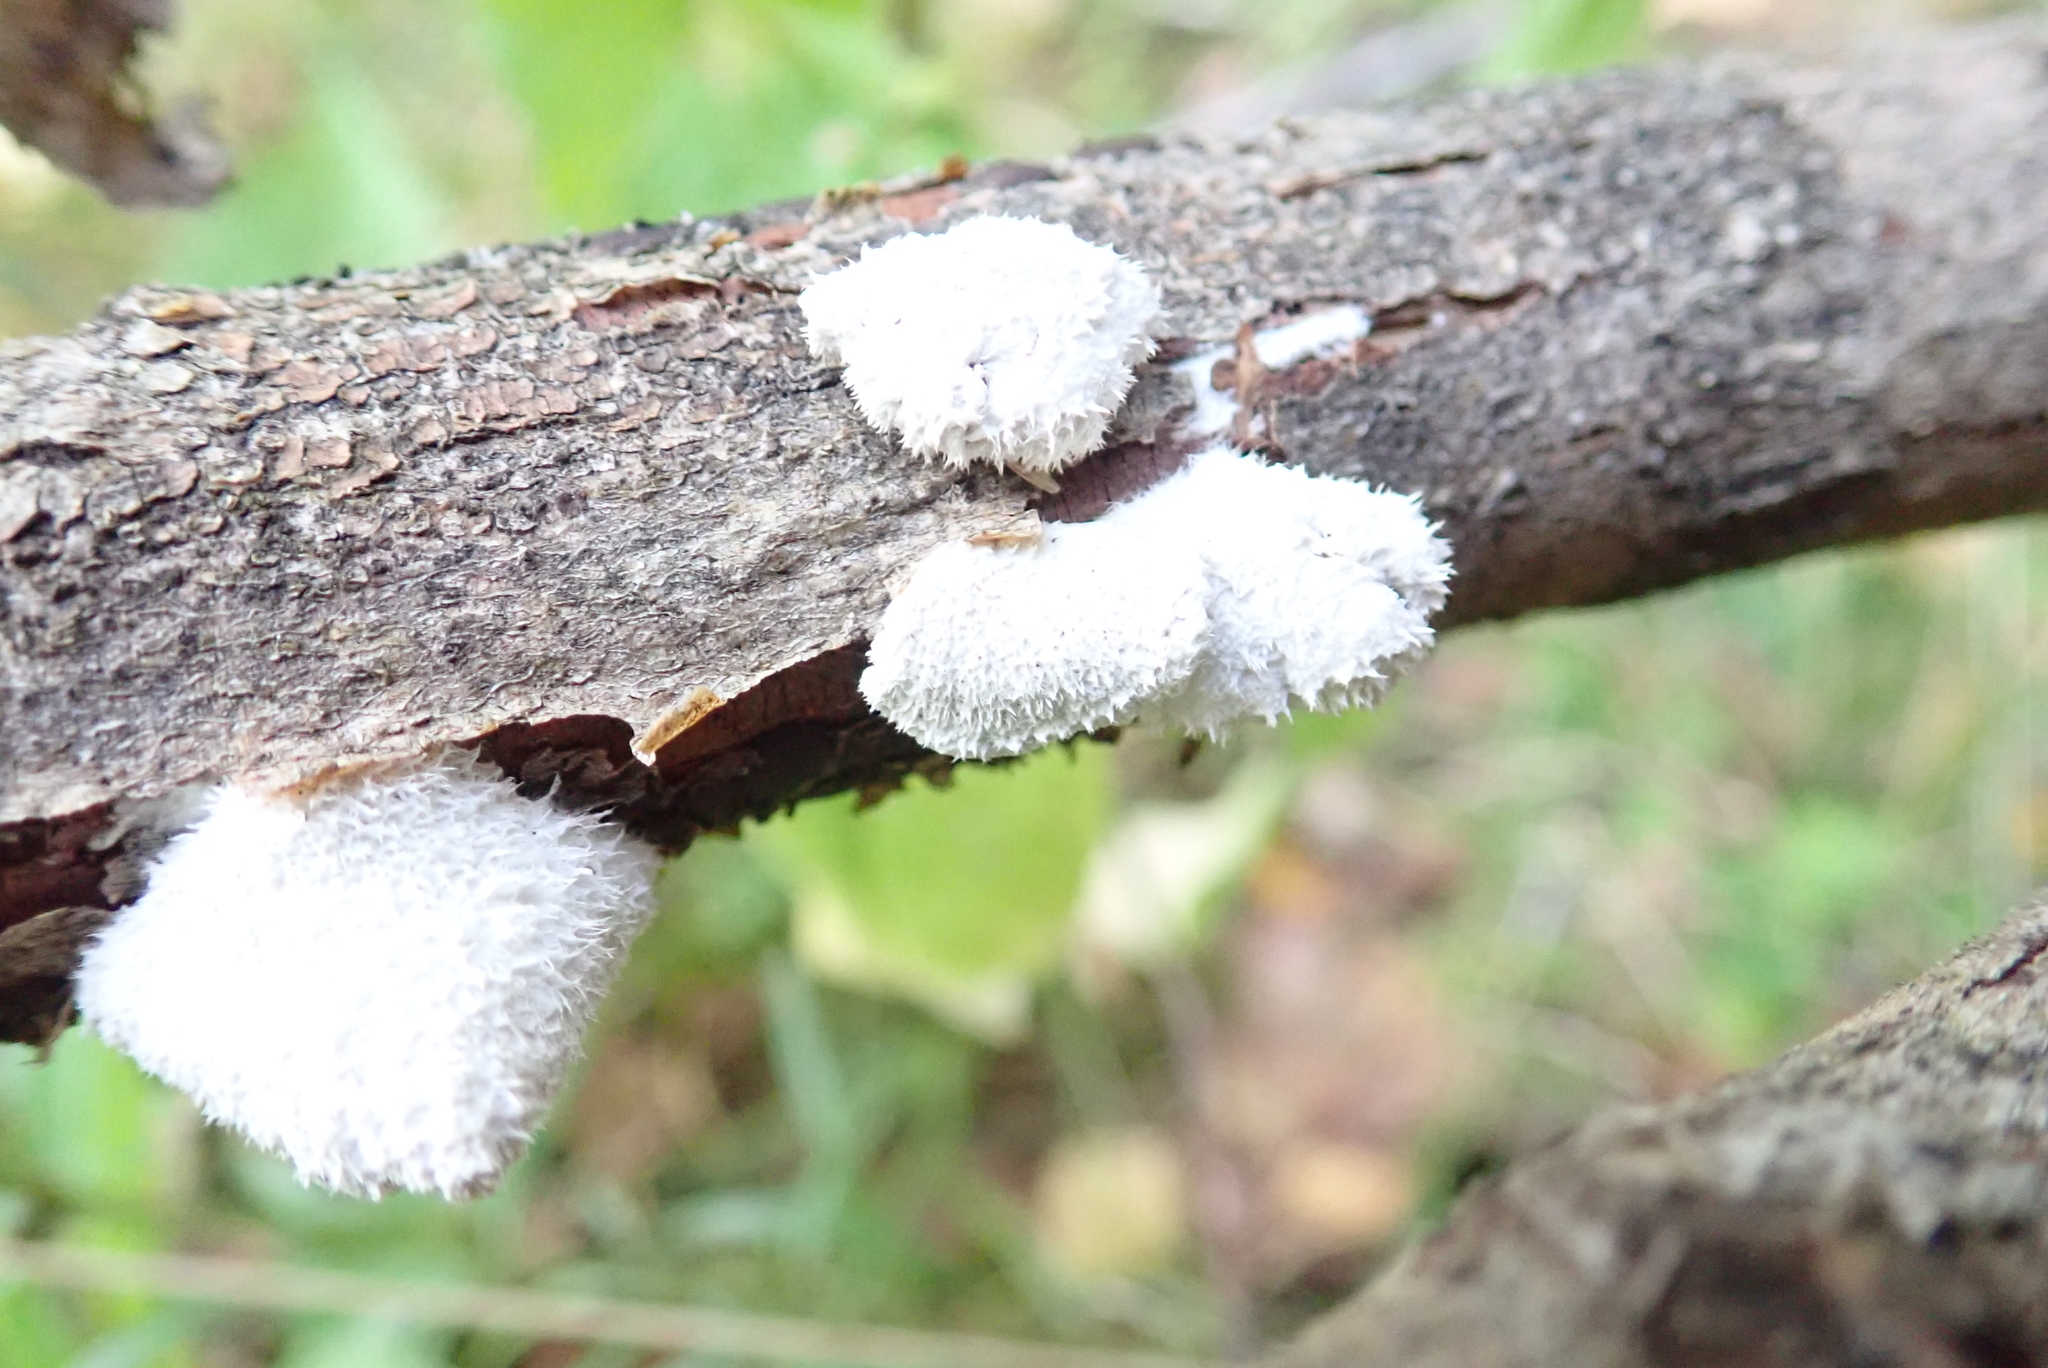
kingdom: Fungi
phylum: Basidiomycota
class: Agaricomycetes
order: Agaricales
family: Schizophyllaceae
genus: Schizophyllum
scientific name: Schizophyllum commune
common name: Common porecrust
